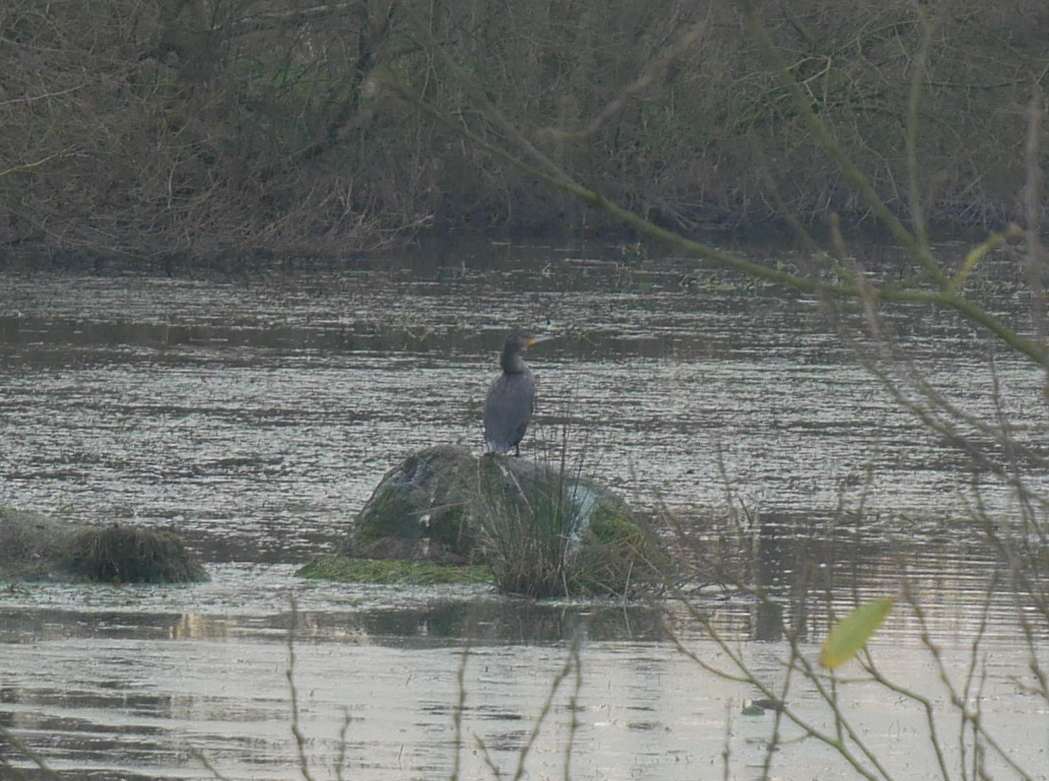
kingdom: Animalia
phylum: Chordata
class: Aves
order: Suliformes
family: Phalacrocoracidae
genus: Phalacrocorax
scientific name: Phalacrocorax carbo
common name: Great cormorant
